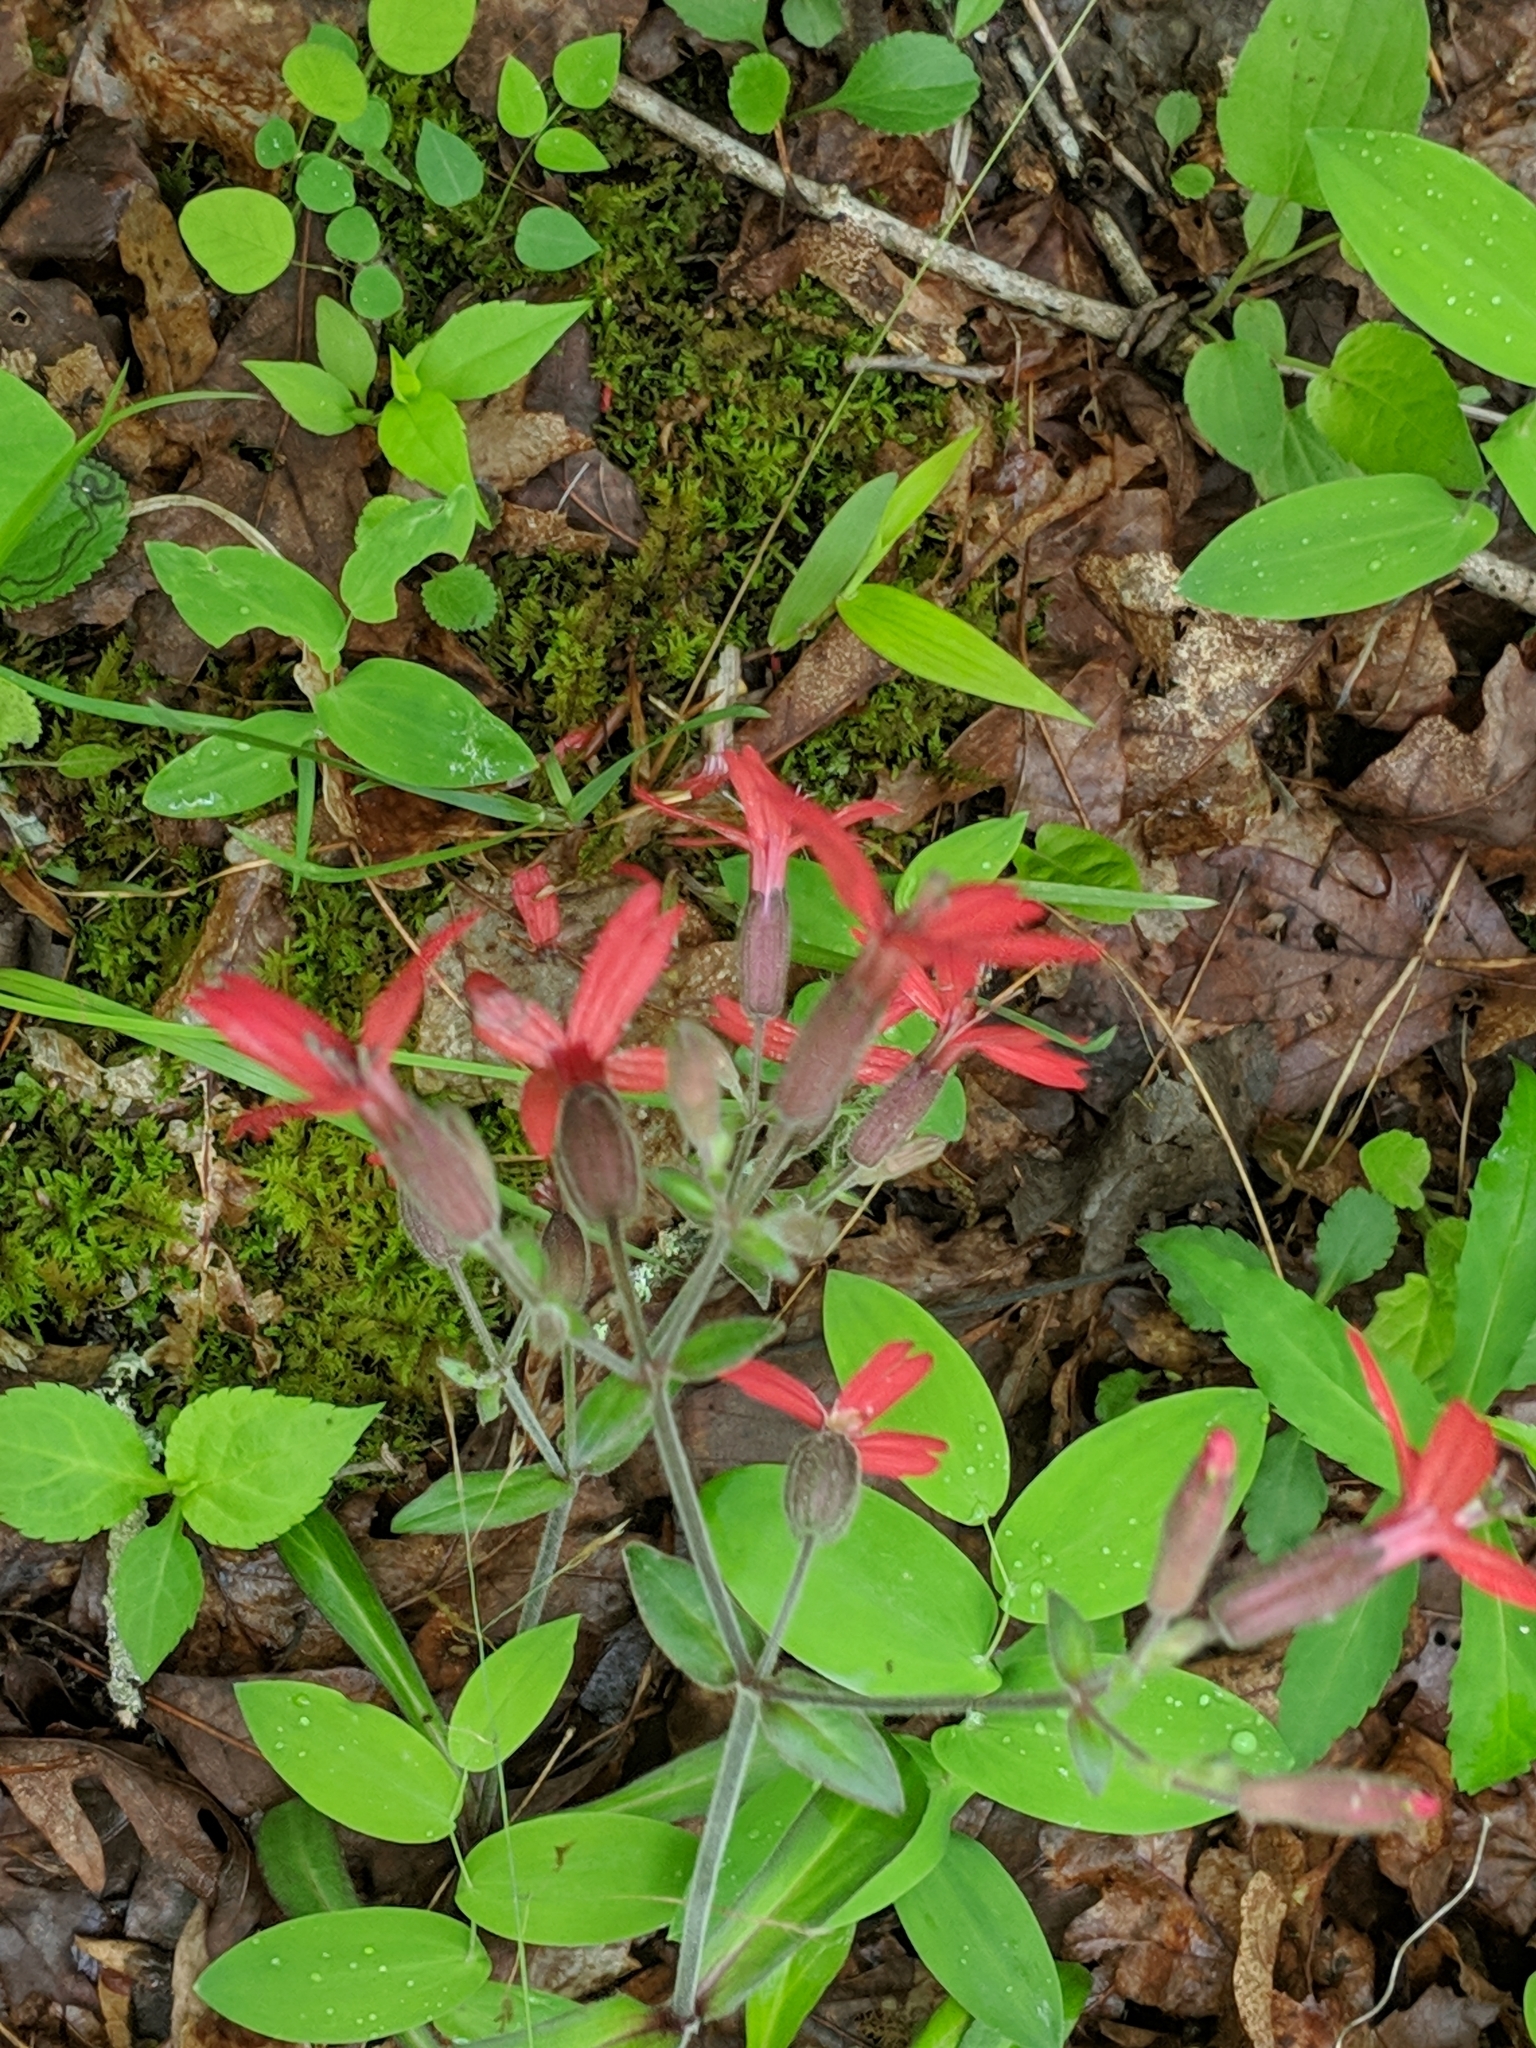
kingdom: Plantae
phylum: Tracheophyta
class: Magnoliopsida
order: Caryophyllales
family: Caryophyllaceae
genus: Silene
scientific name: Silene virginica
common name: Fire-pink
